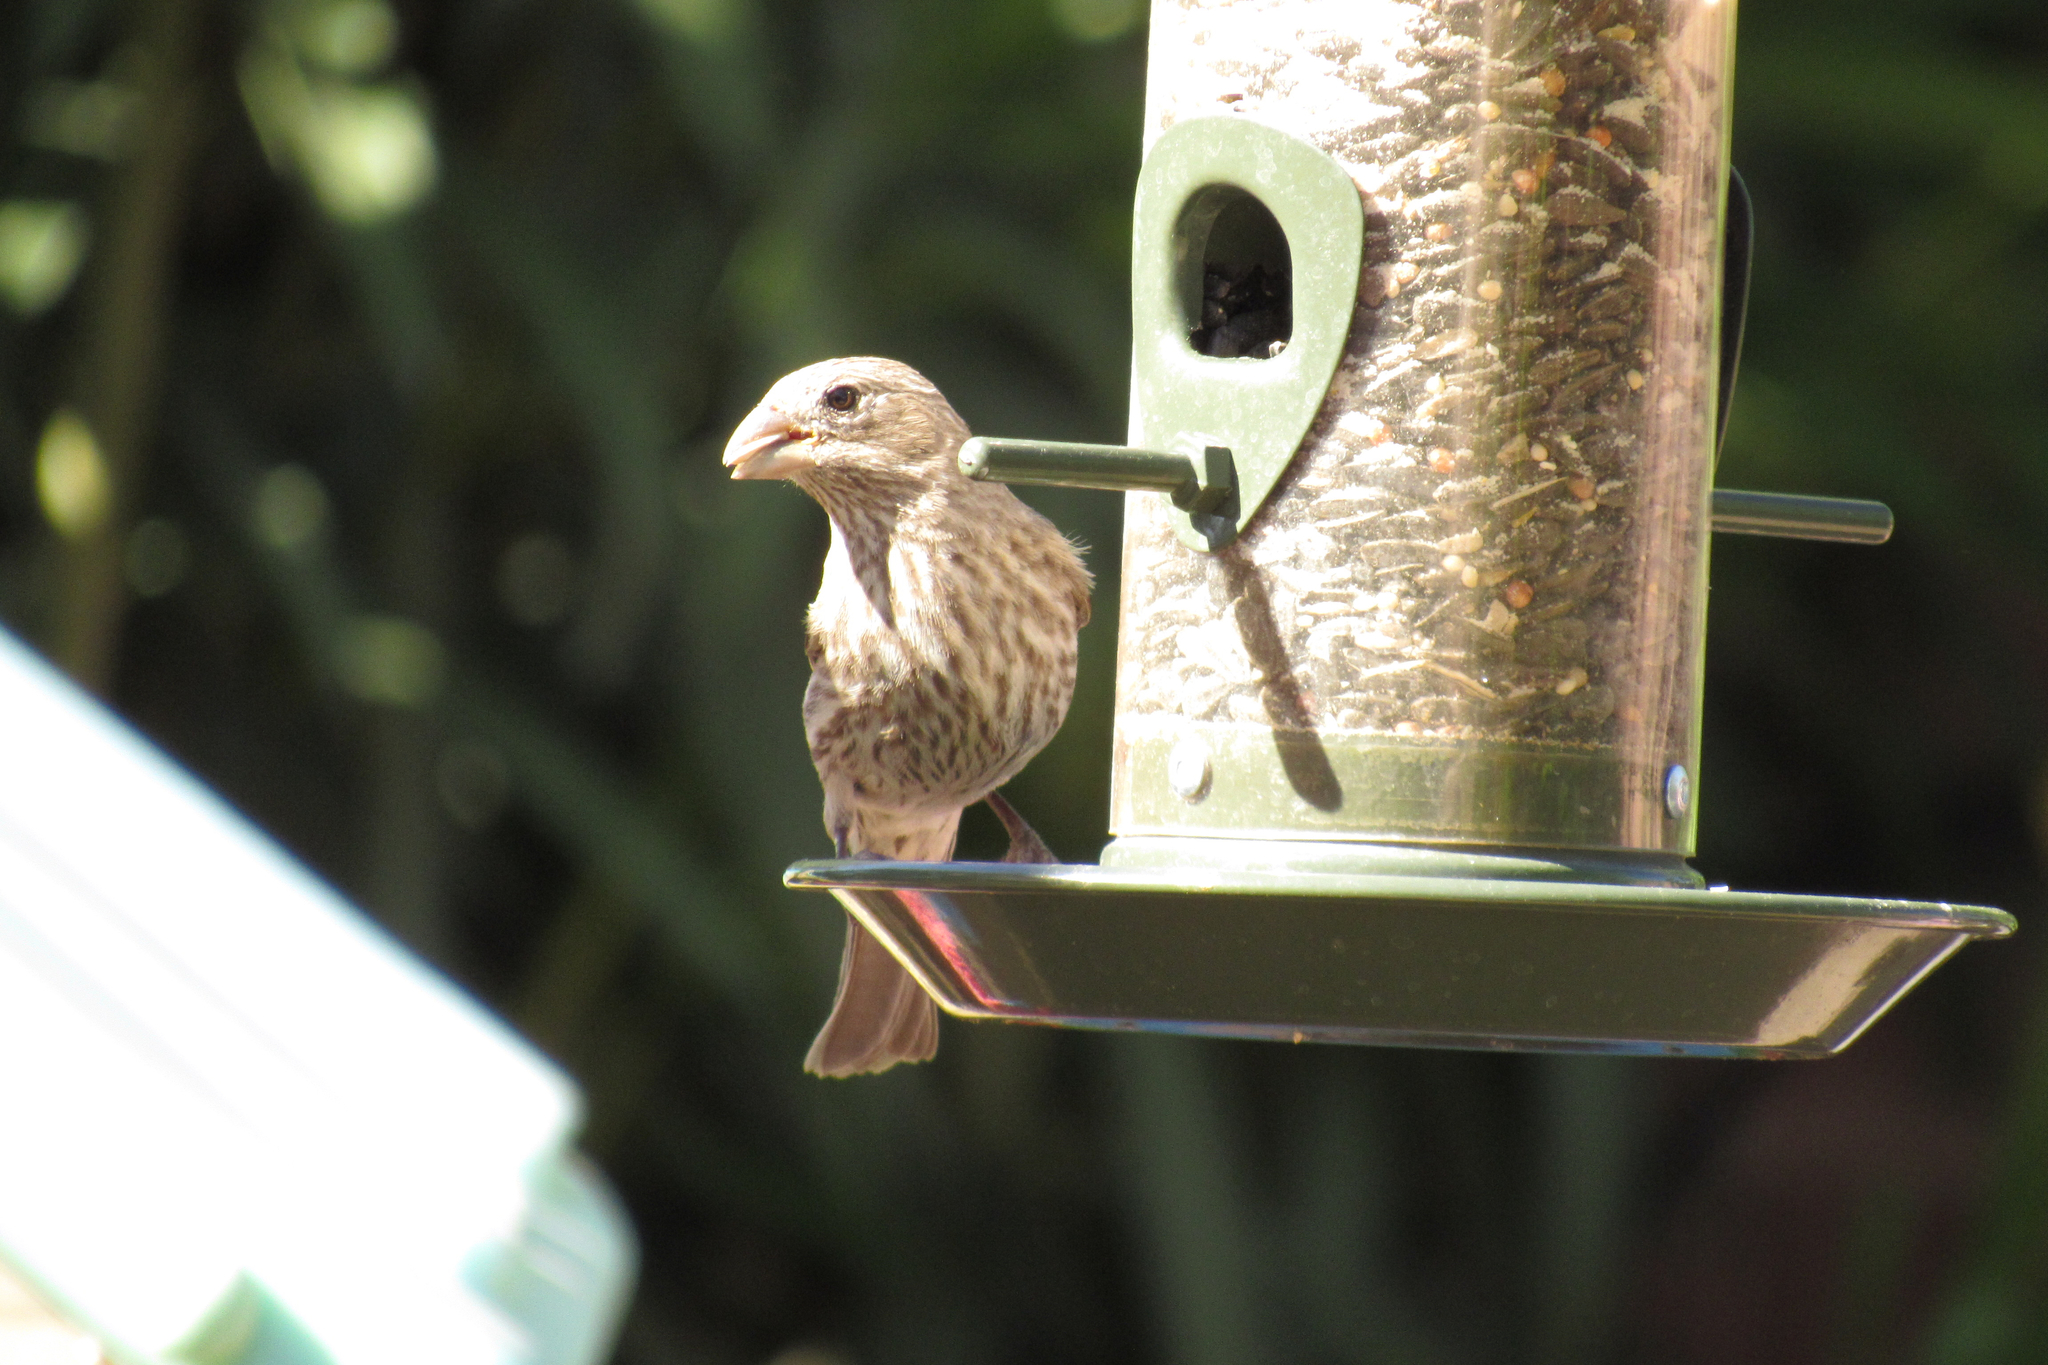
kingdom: Animalia
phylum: Chordata
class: Aves
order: Passeriformes
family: Fringillidae
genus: Haemorhous
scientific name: Haemorhous mexicanus
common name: House finch
